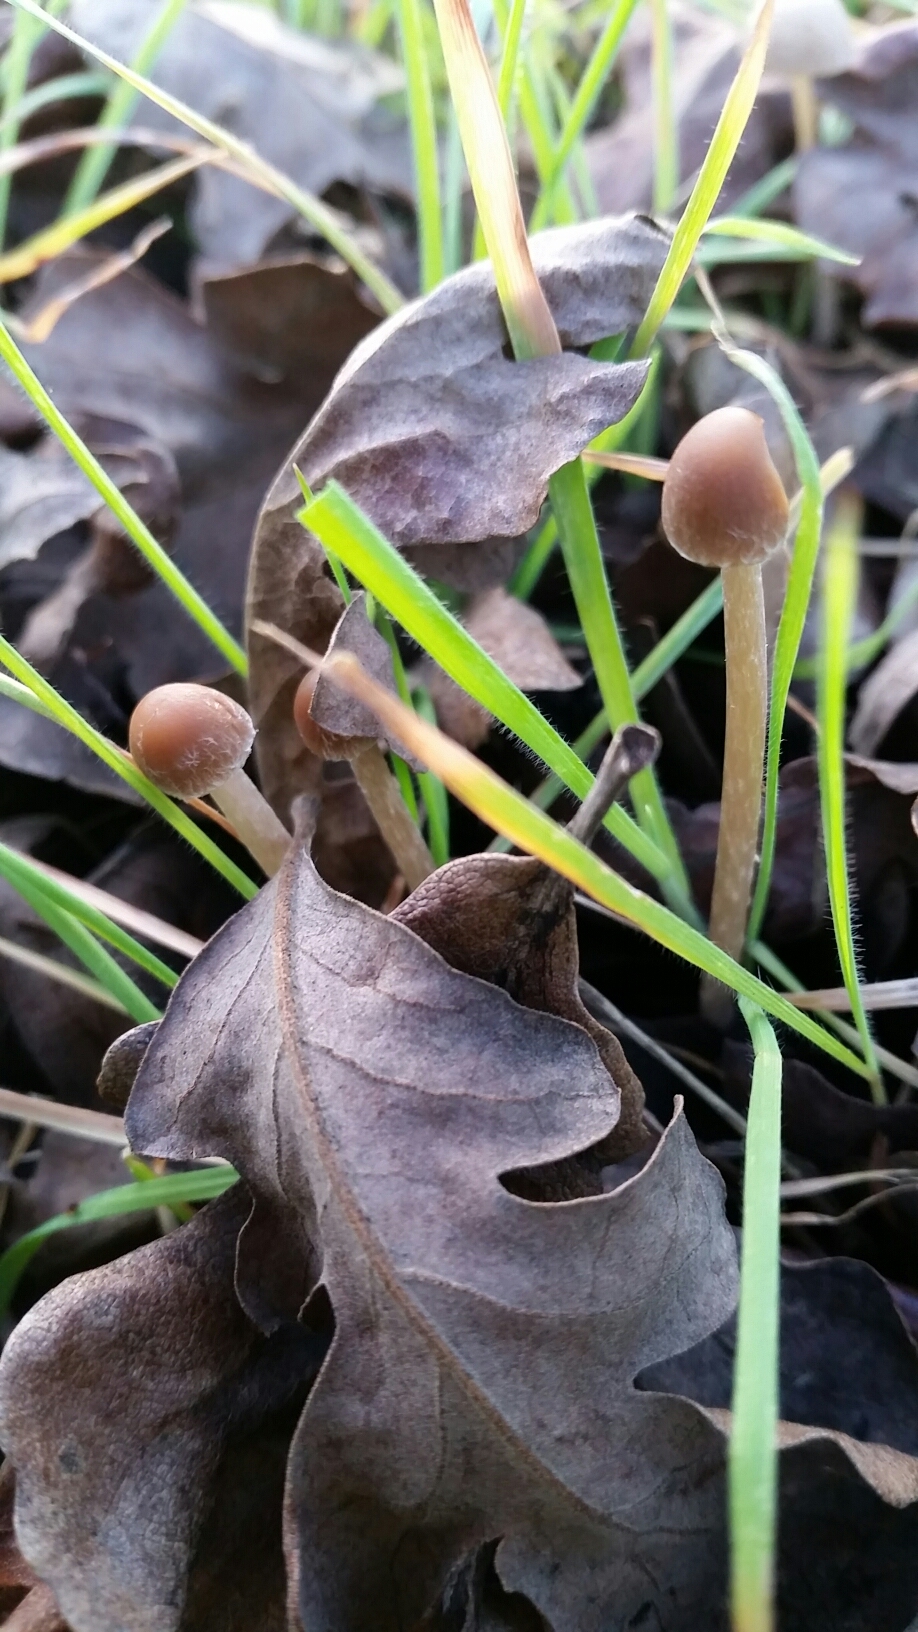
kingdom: Fungi
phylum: Basidiomycota
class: Agaricomycetes
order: Agaricales
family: Psathyrellaceae
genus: Psathyrella
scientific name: Psathyrella corrugis
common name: Red edge brittlestem
